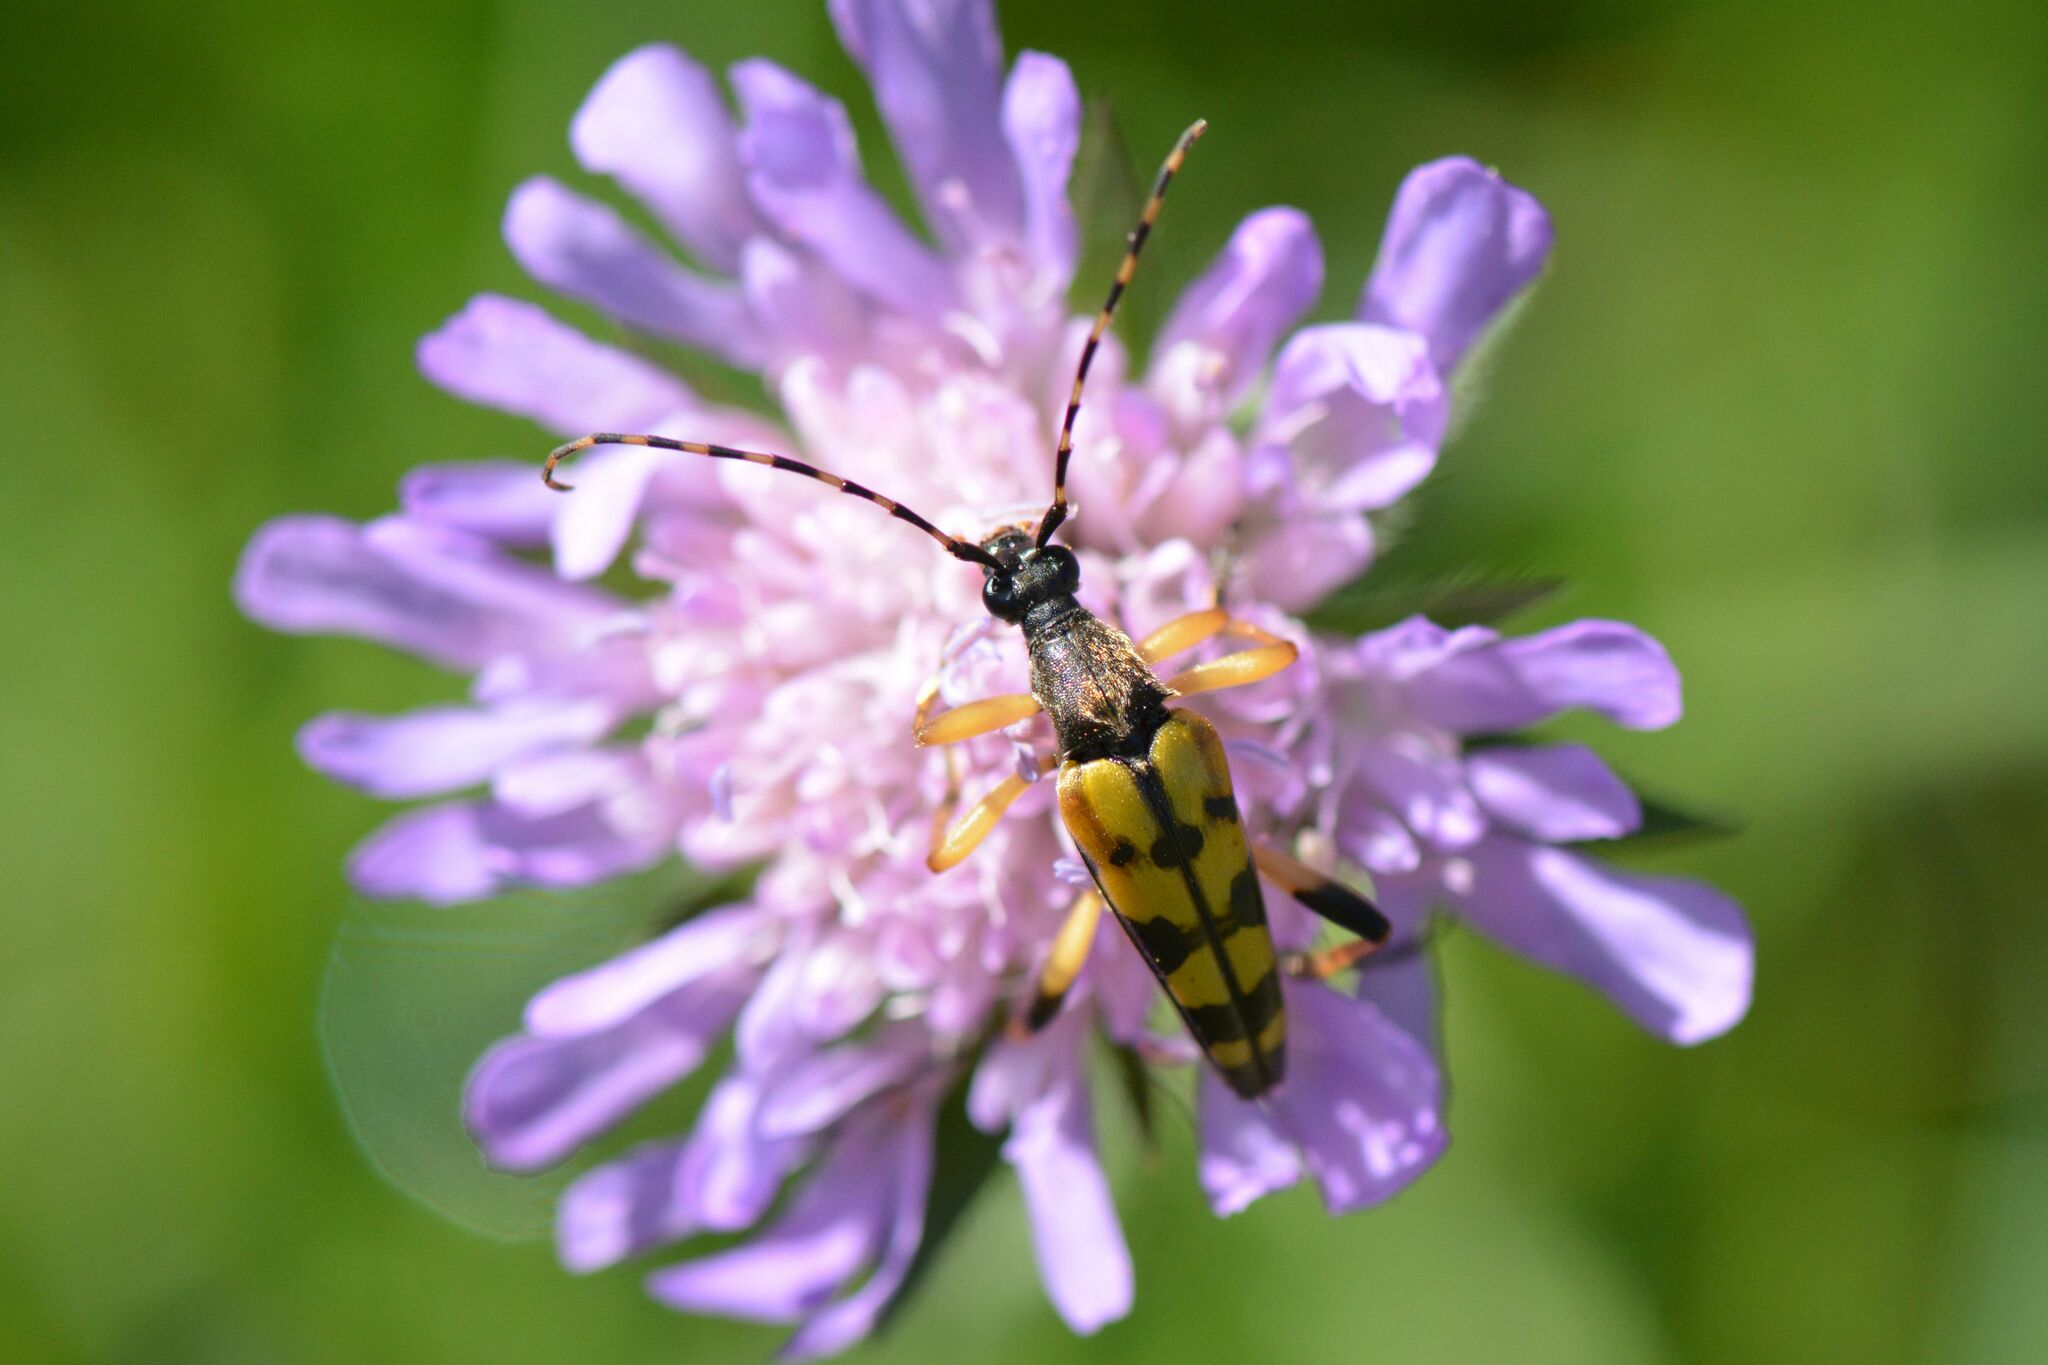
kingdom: Animalia
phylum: Arthropoda
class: Insecta
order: Coleoptera
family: Cerambycidae
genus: Rutpela
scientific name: Rutpela maculata
